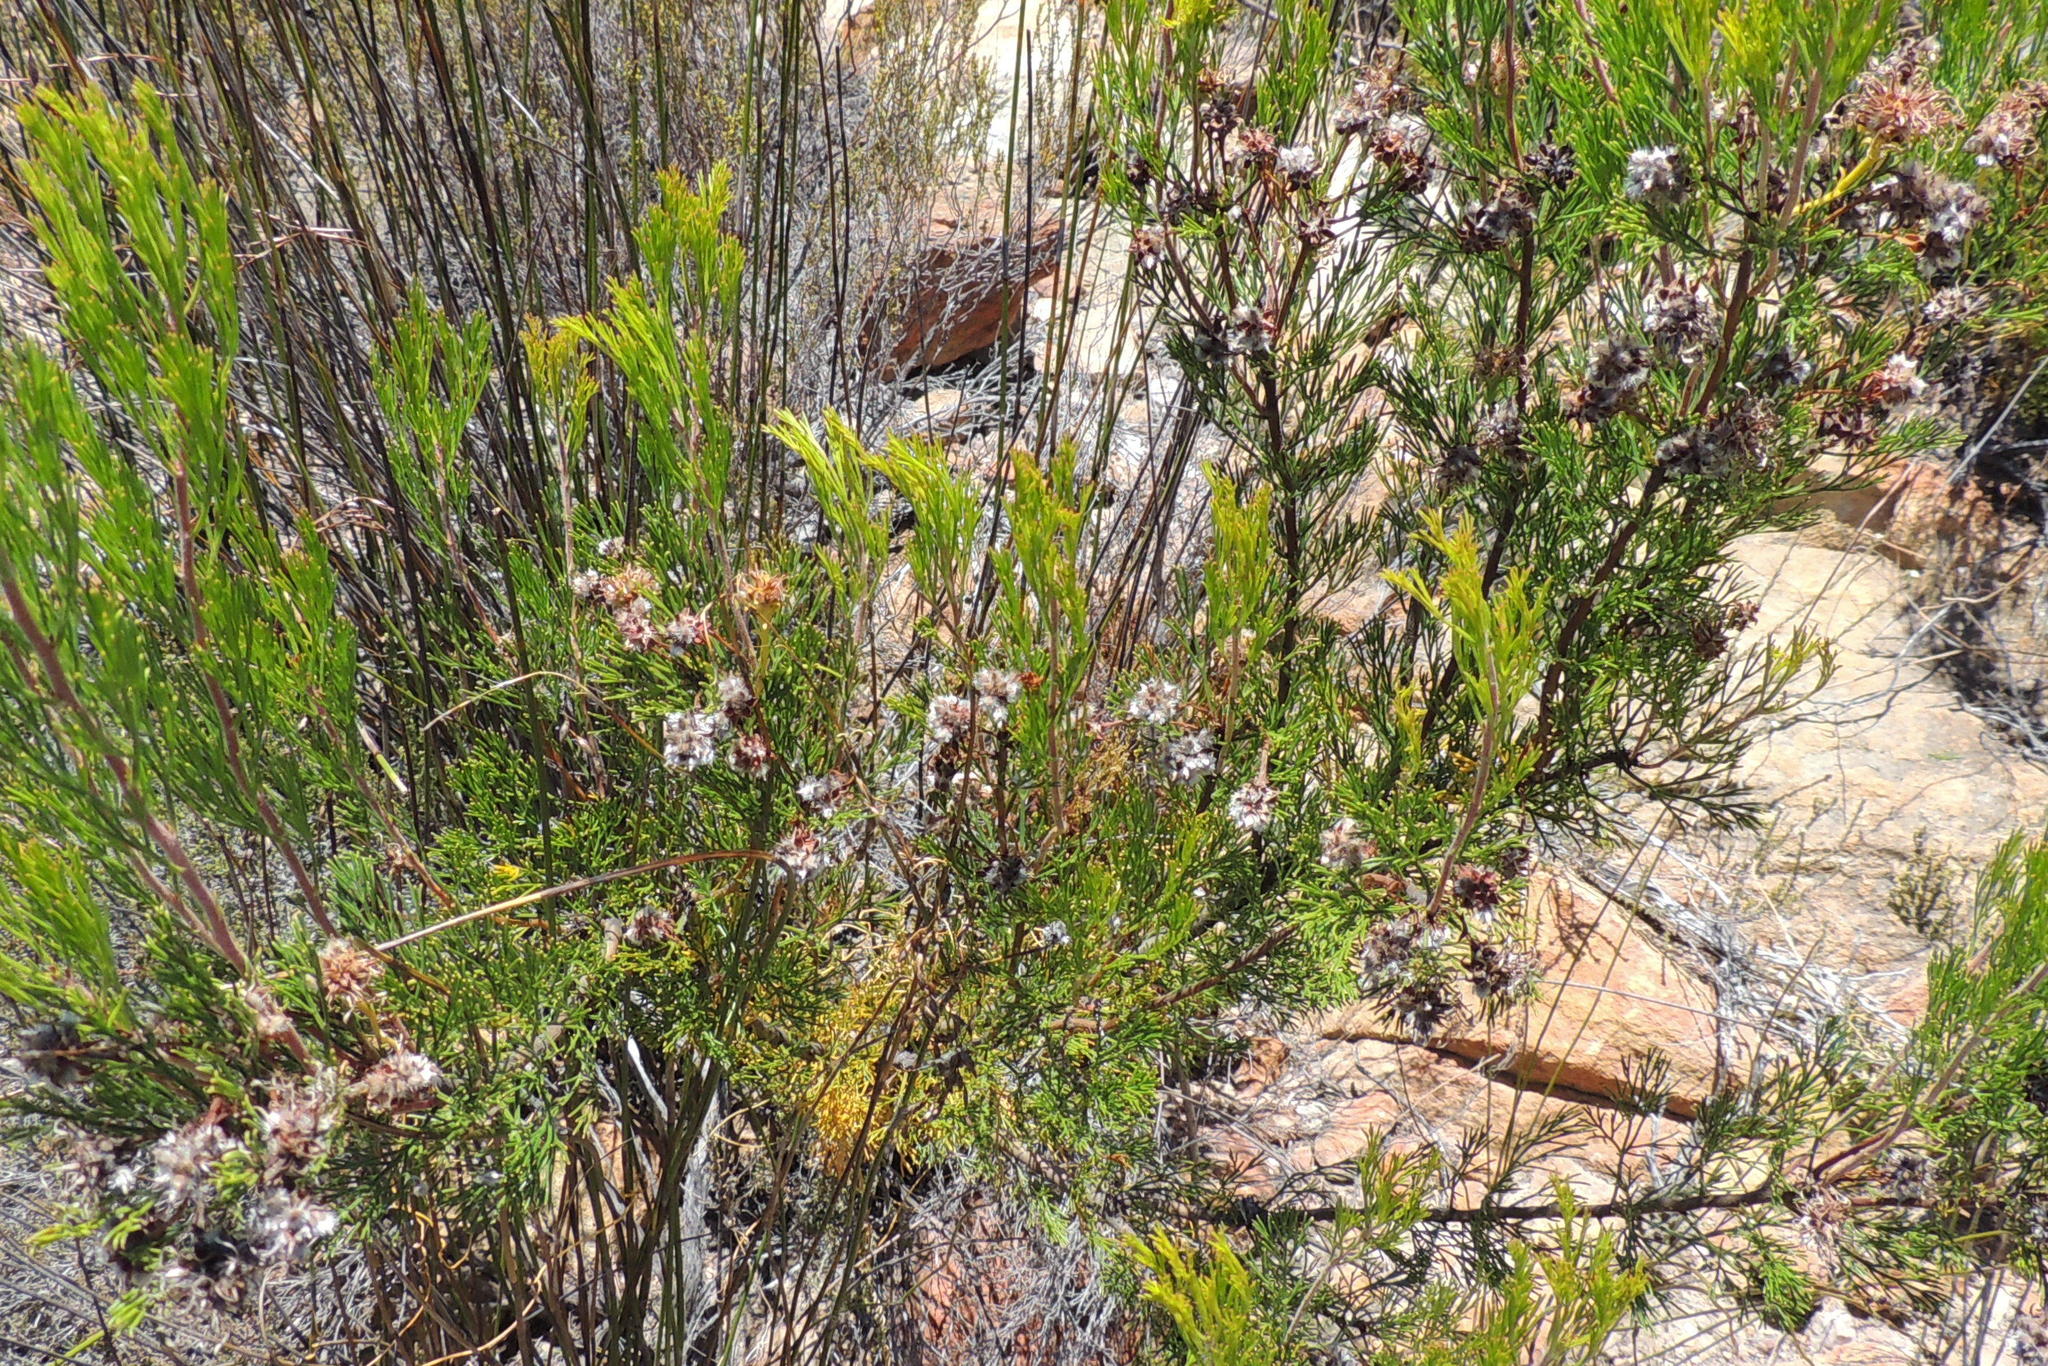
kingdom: Plantae
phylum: Tracheophyta
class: Magnoliopsida
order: Proteales
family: Proteaceae
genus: Serruria
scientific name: Serruria balanocephala
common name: Acorn spiderhead
